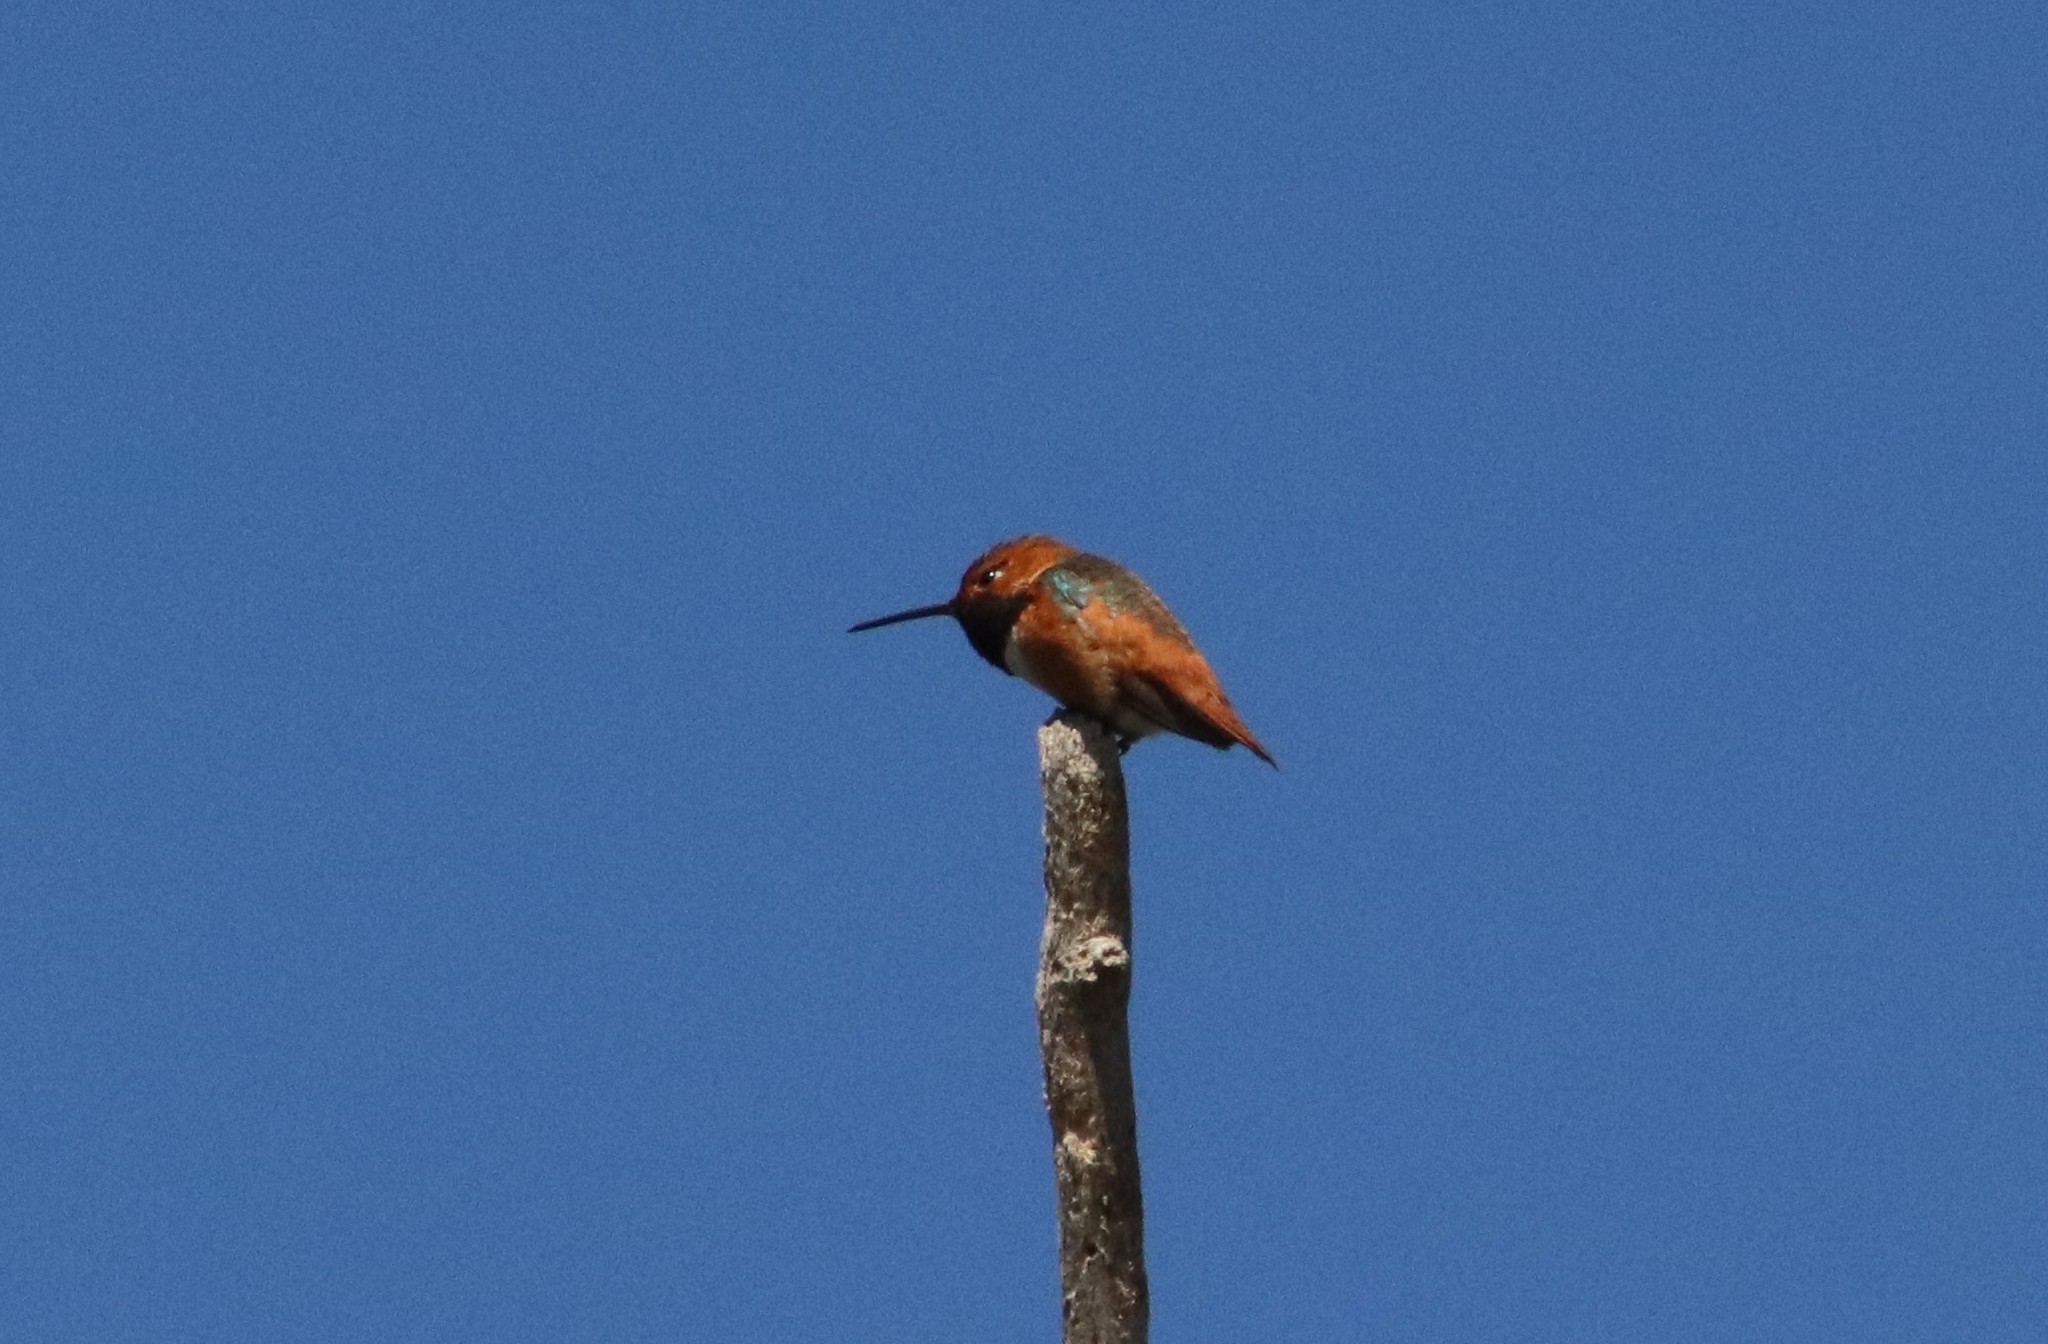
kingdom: Animalia
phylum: Chordata
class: Aves
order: Apodiformes
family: Trochilidae
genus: Selasphorus
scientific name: Selasphorus sasin
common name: Allen's hummingbird
